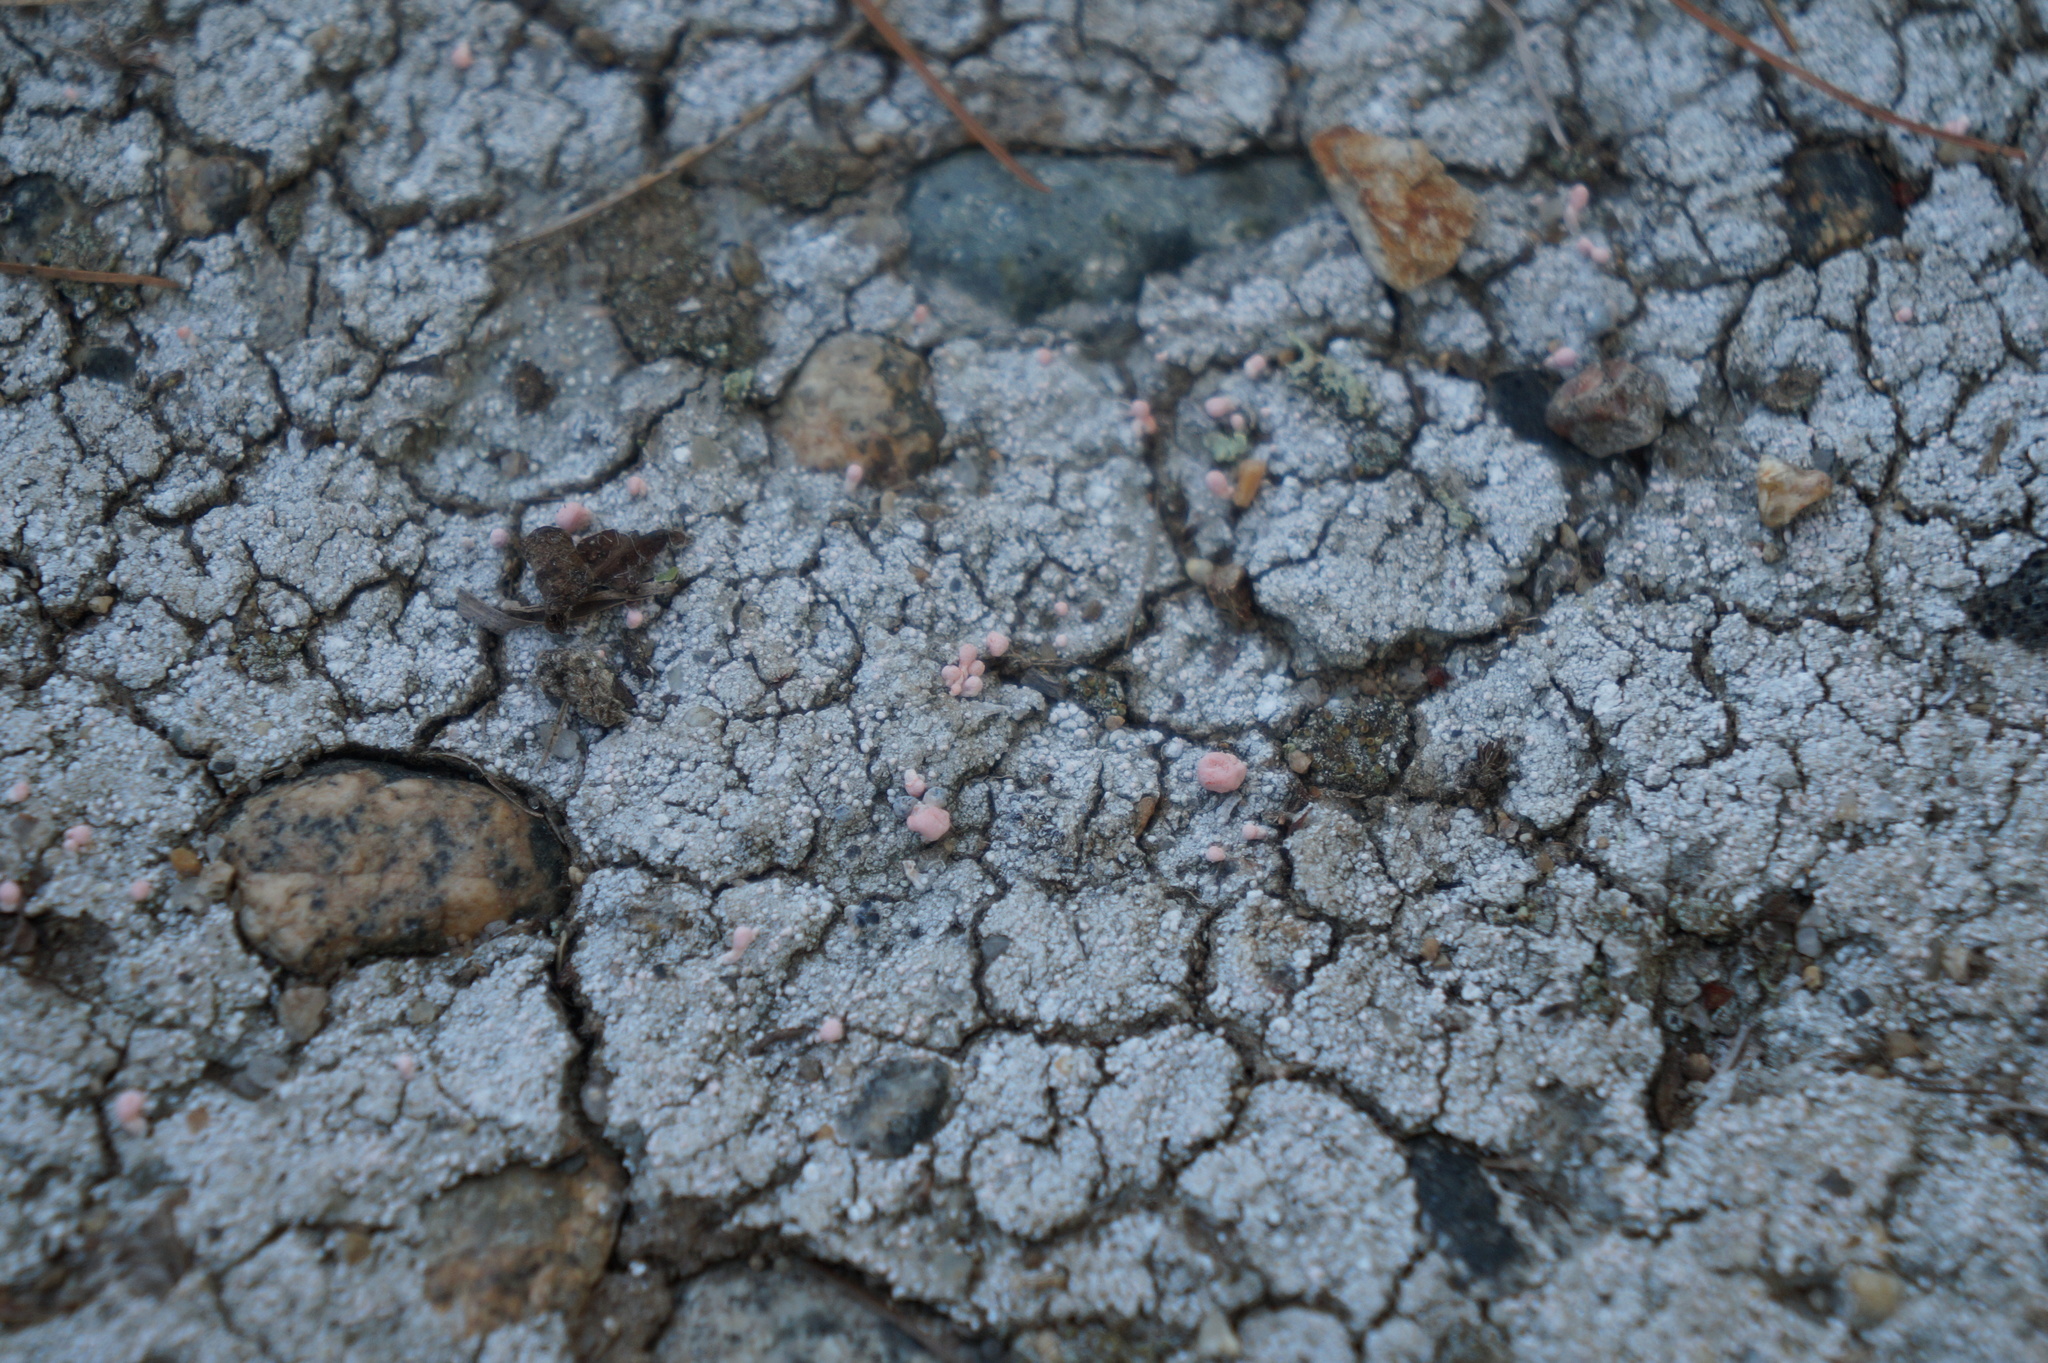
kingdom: Fungi
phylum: Ascomycota
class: Lecanoromycetes
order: Pertusariales
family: Icmadophilaceae
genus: Dibaeis
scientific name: Dibaeis baeomyces
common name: Pink earth lichen
